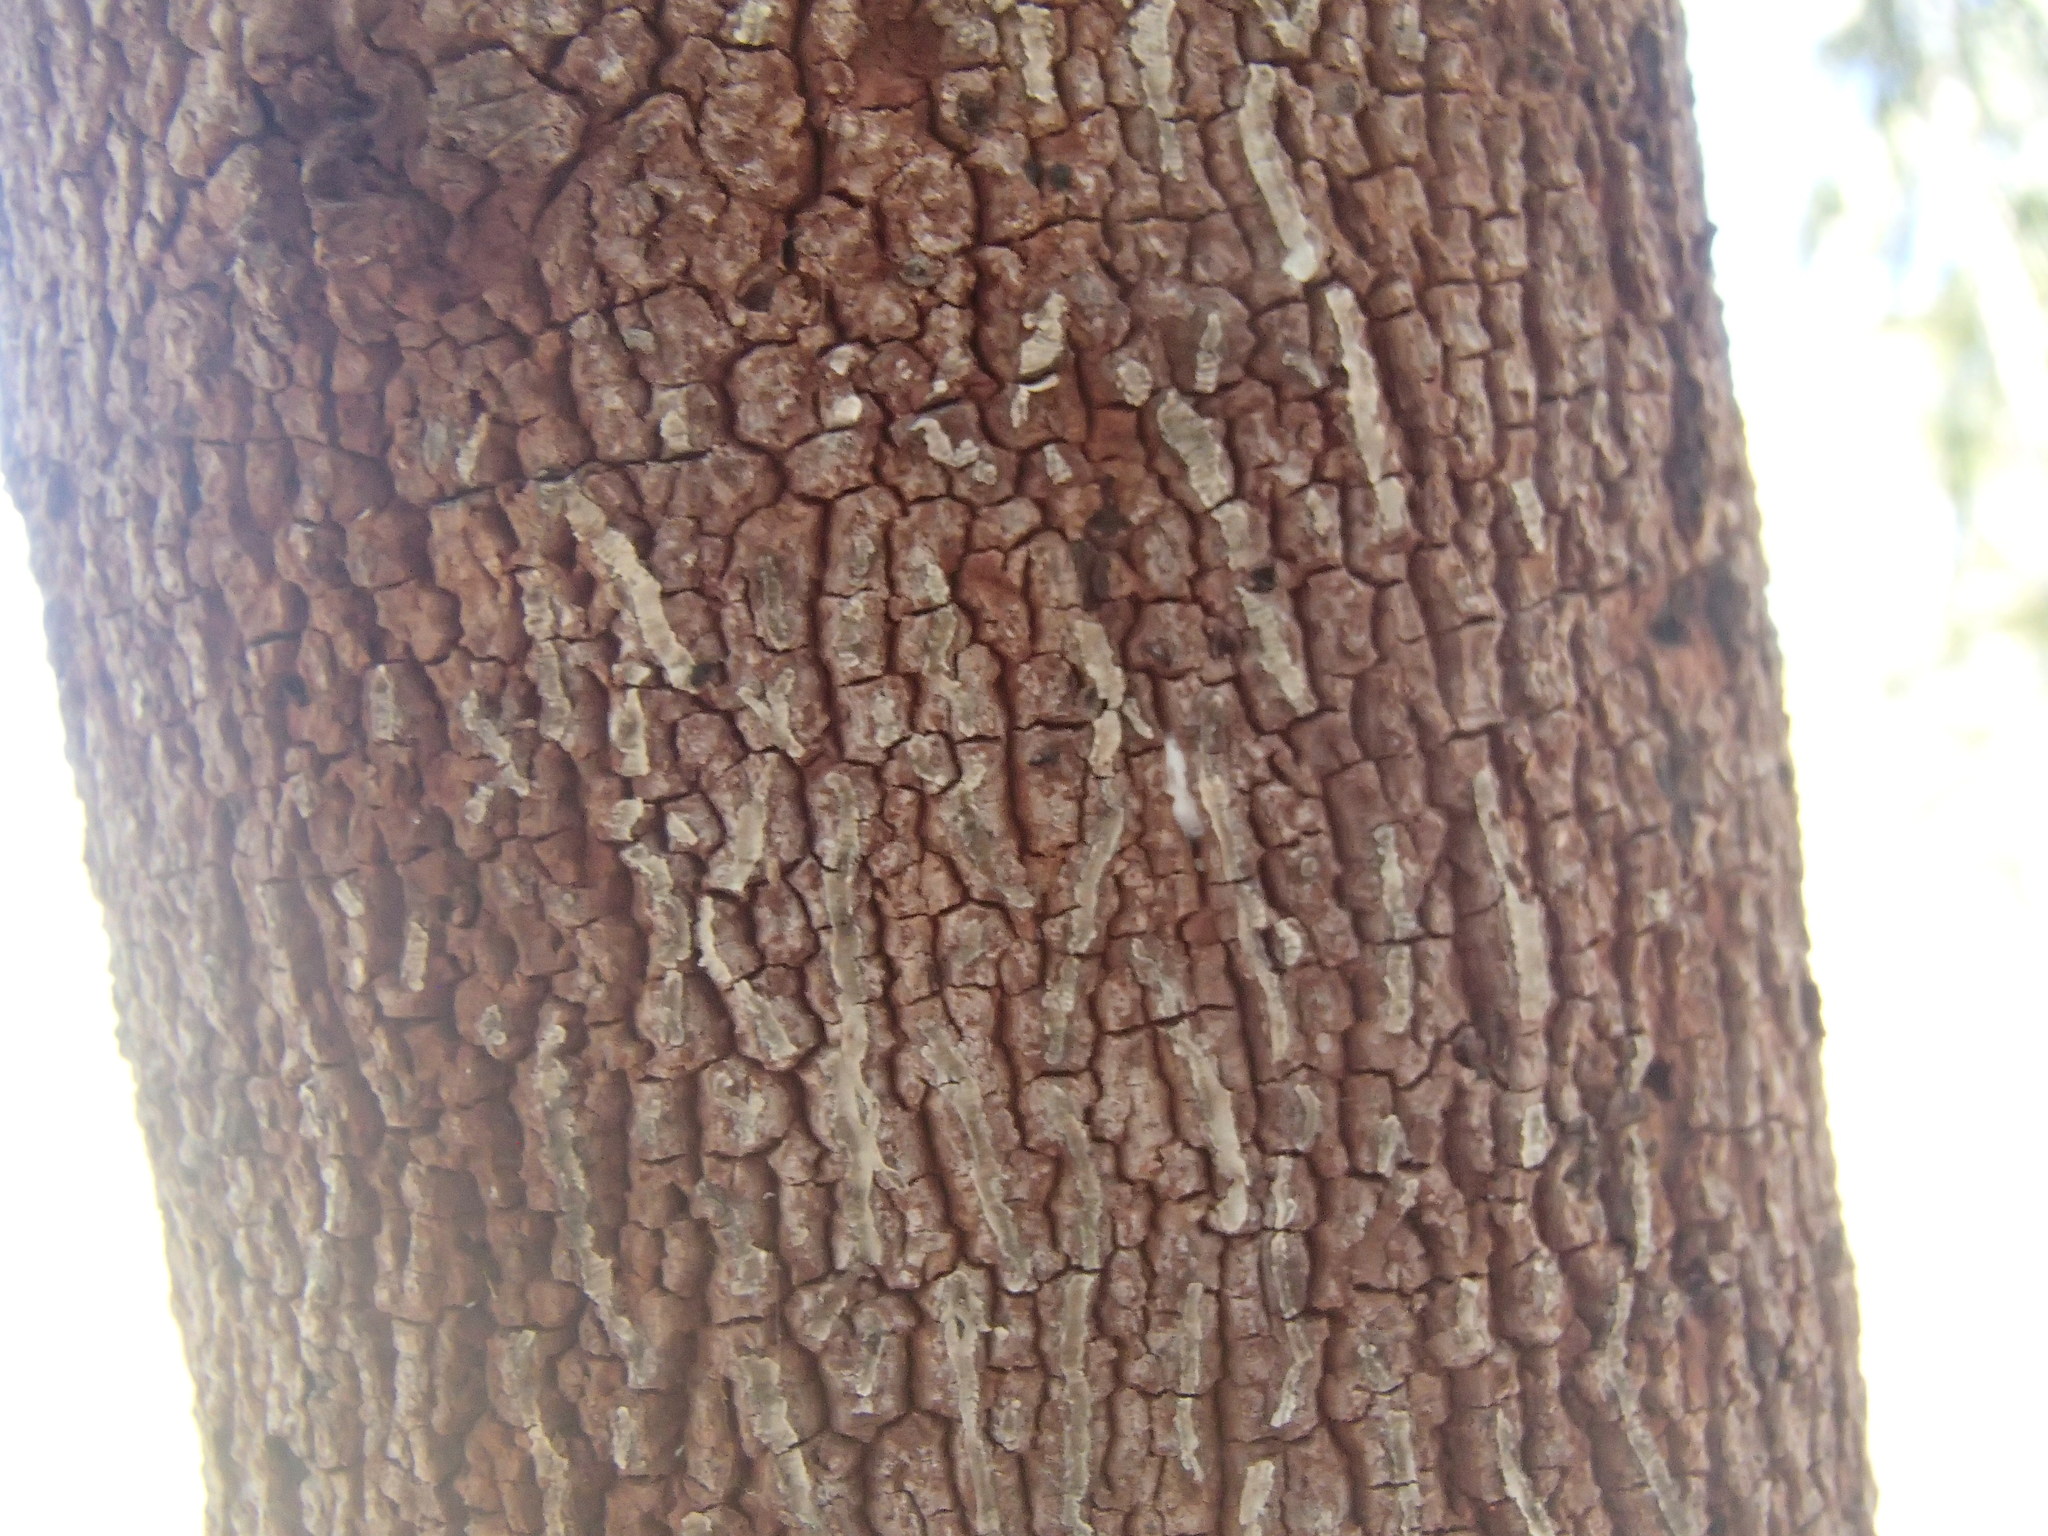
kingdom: Plantae
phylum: Tracheophyta
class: Magnoliopsida
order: Santalales
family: Santalaceae
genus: Exocarpos
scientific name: Exocarpos cupressiformis
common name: Cherry ballart
